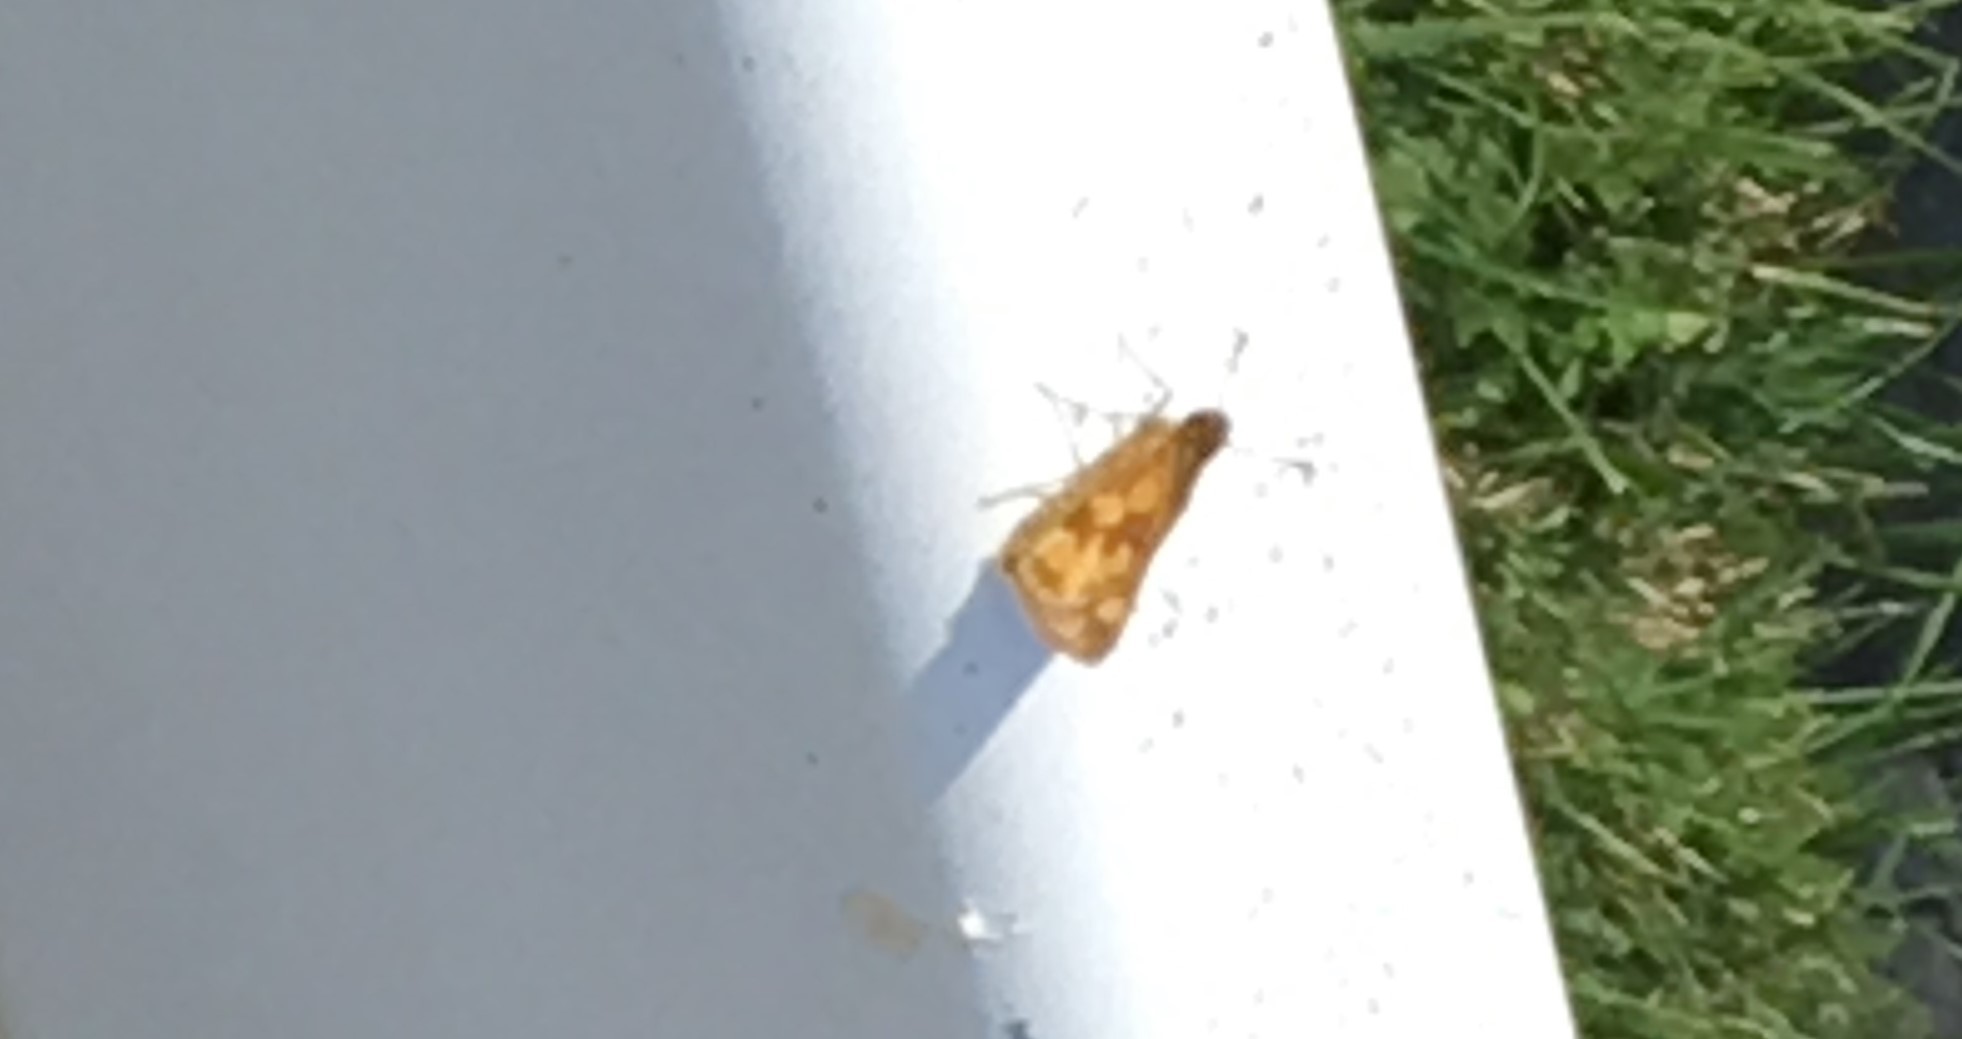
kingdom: Animalia
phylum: Arthropoda
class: Insecta
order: Lepidoptera
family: Hesperiidae
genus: Polites
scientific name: Polites coras
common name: Peck's skipper
